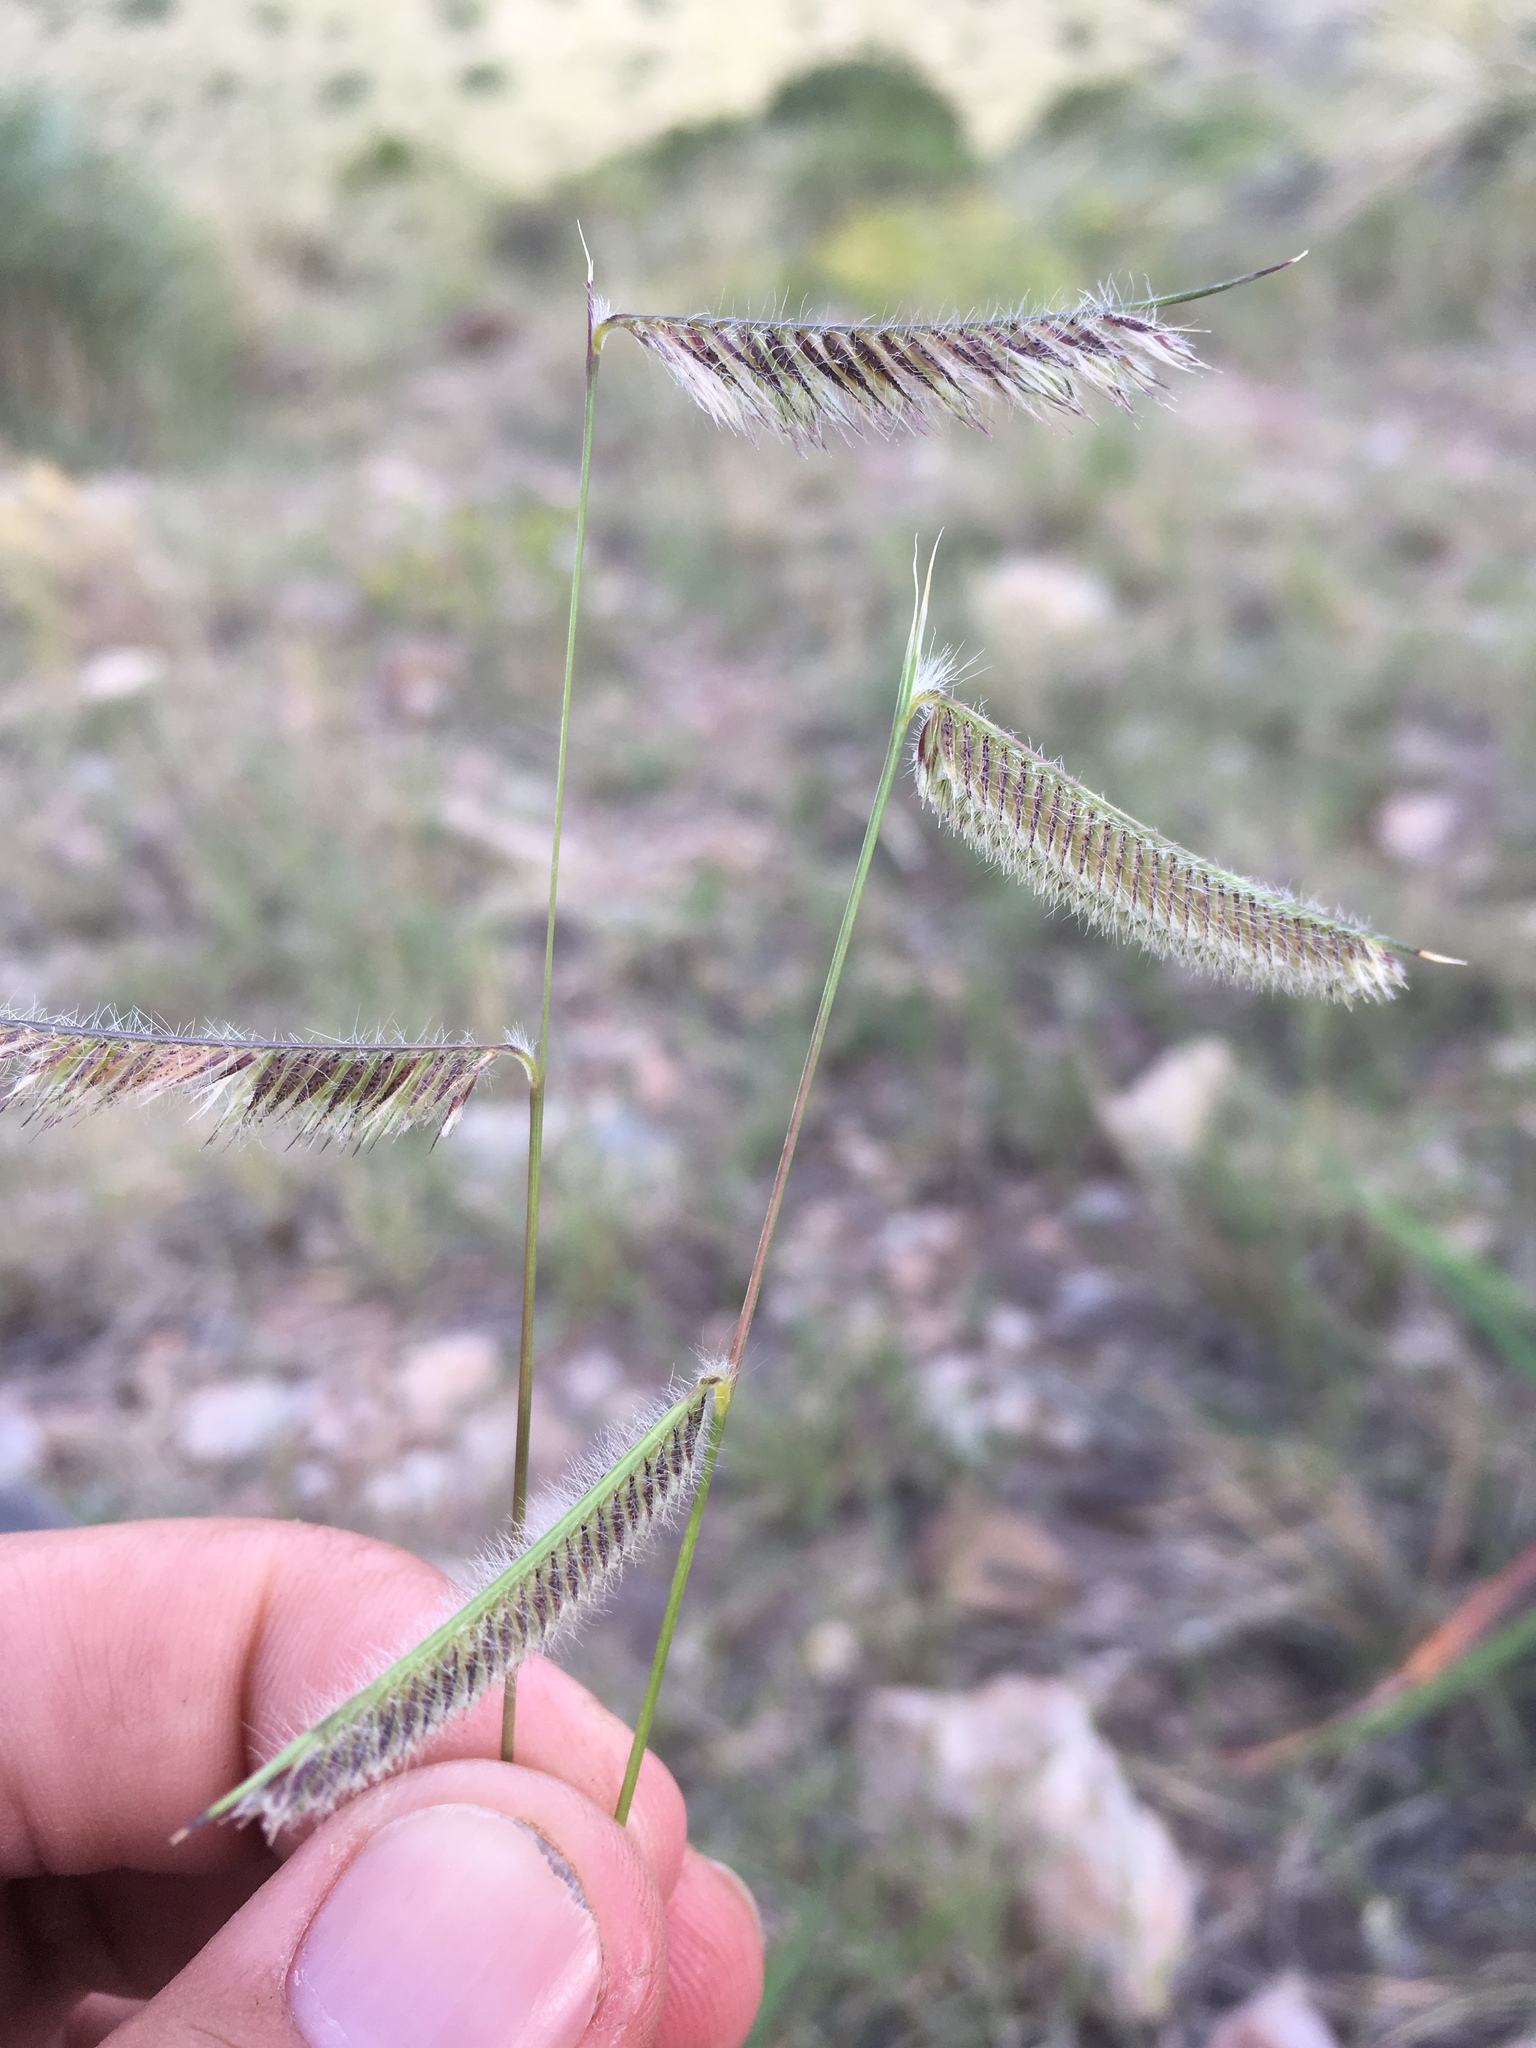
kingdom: Plantae
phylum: Tracheophyta
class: Liliopsida
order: Poales
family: Poaceae
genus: Bouteloua
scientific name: Bouteloua hirsuta
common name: Hairy grama
